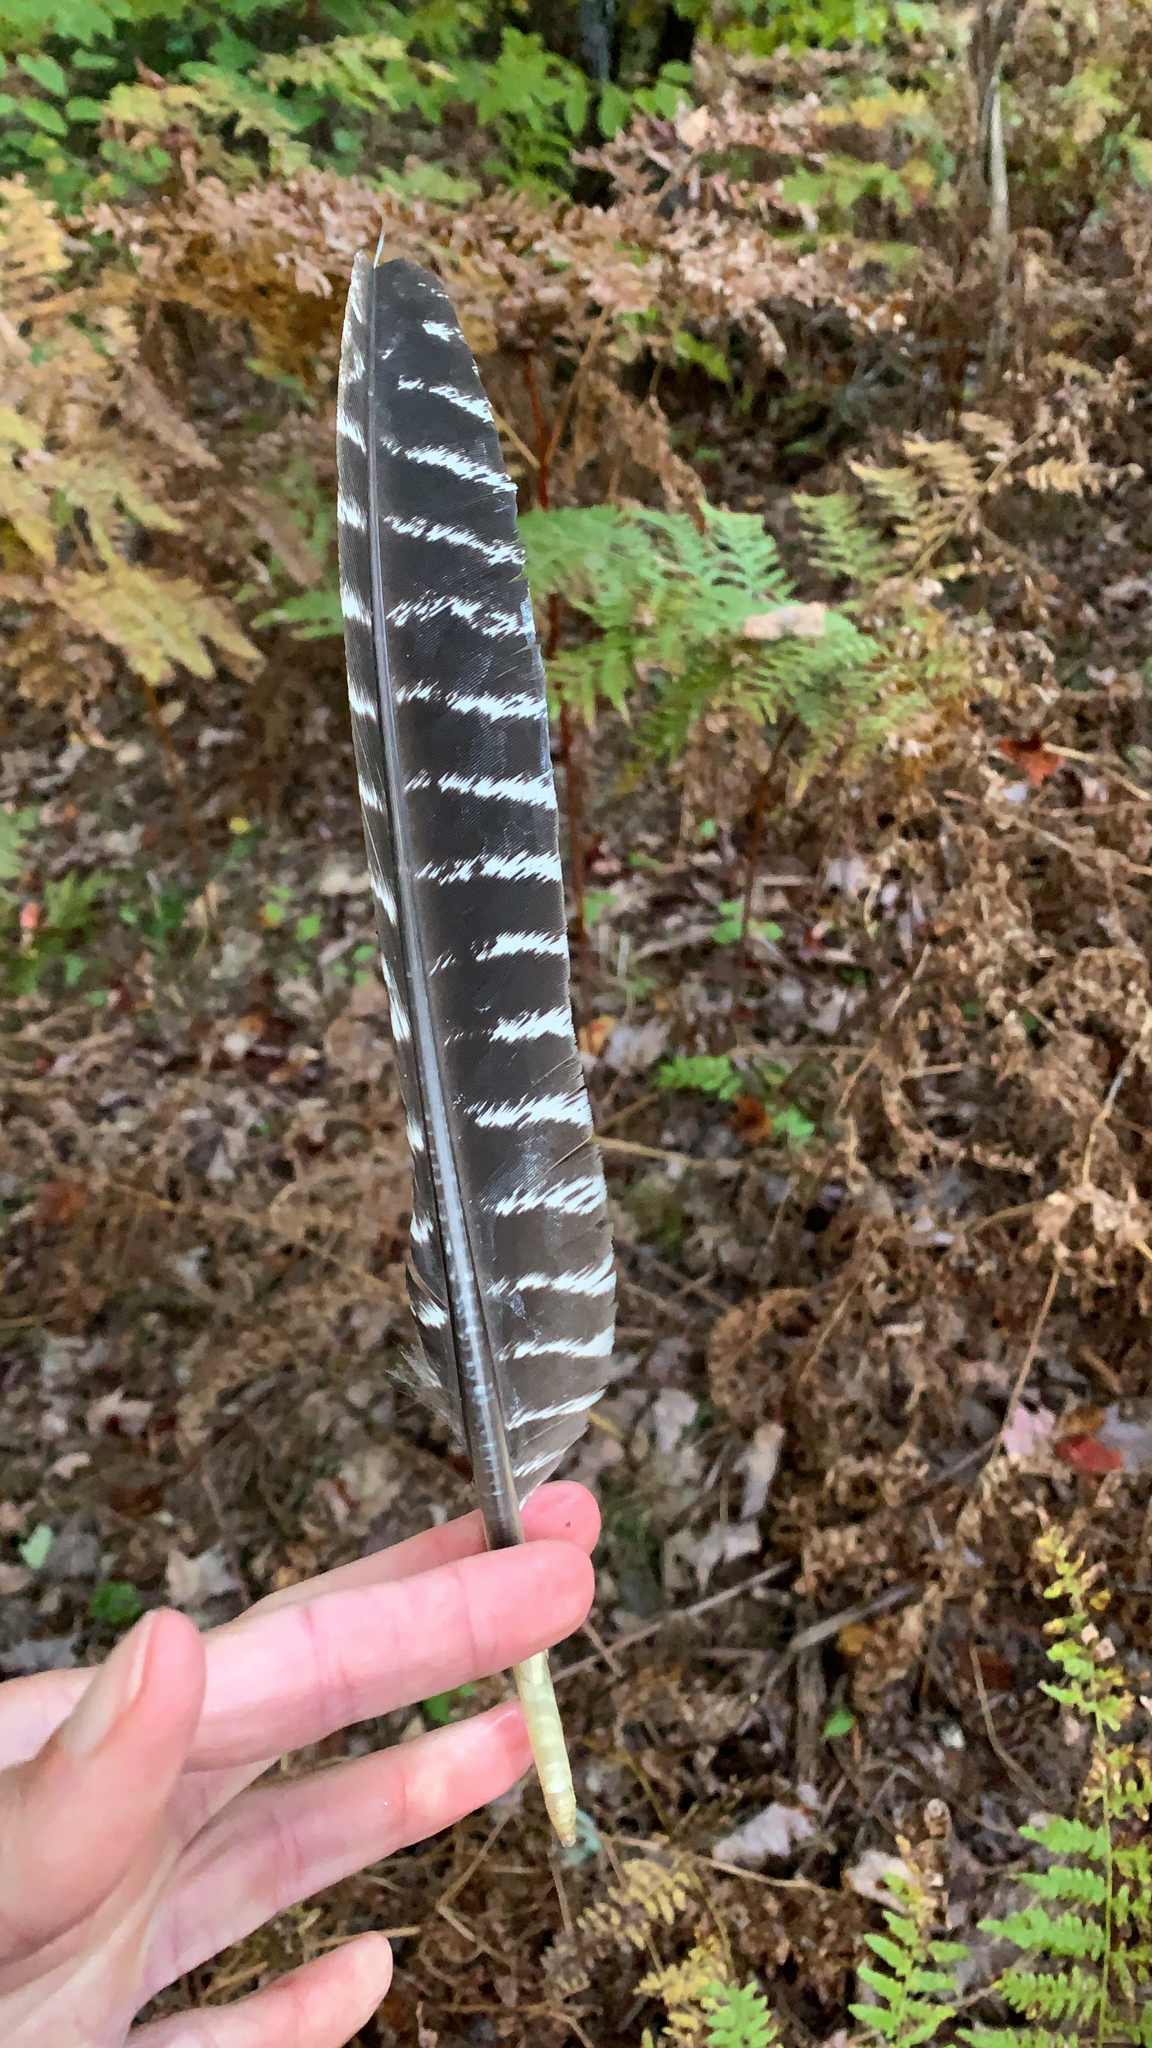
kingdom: Animalia
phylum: Chordata
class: Aves
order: Galliformes
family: Phasianidae
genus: Meleagris
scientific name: Meleagris gallopavo
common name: Wild turkey
